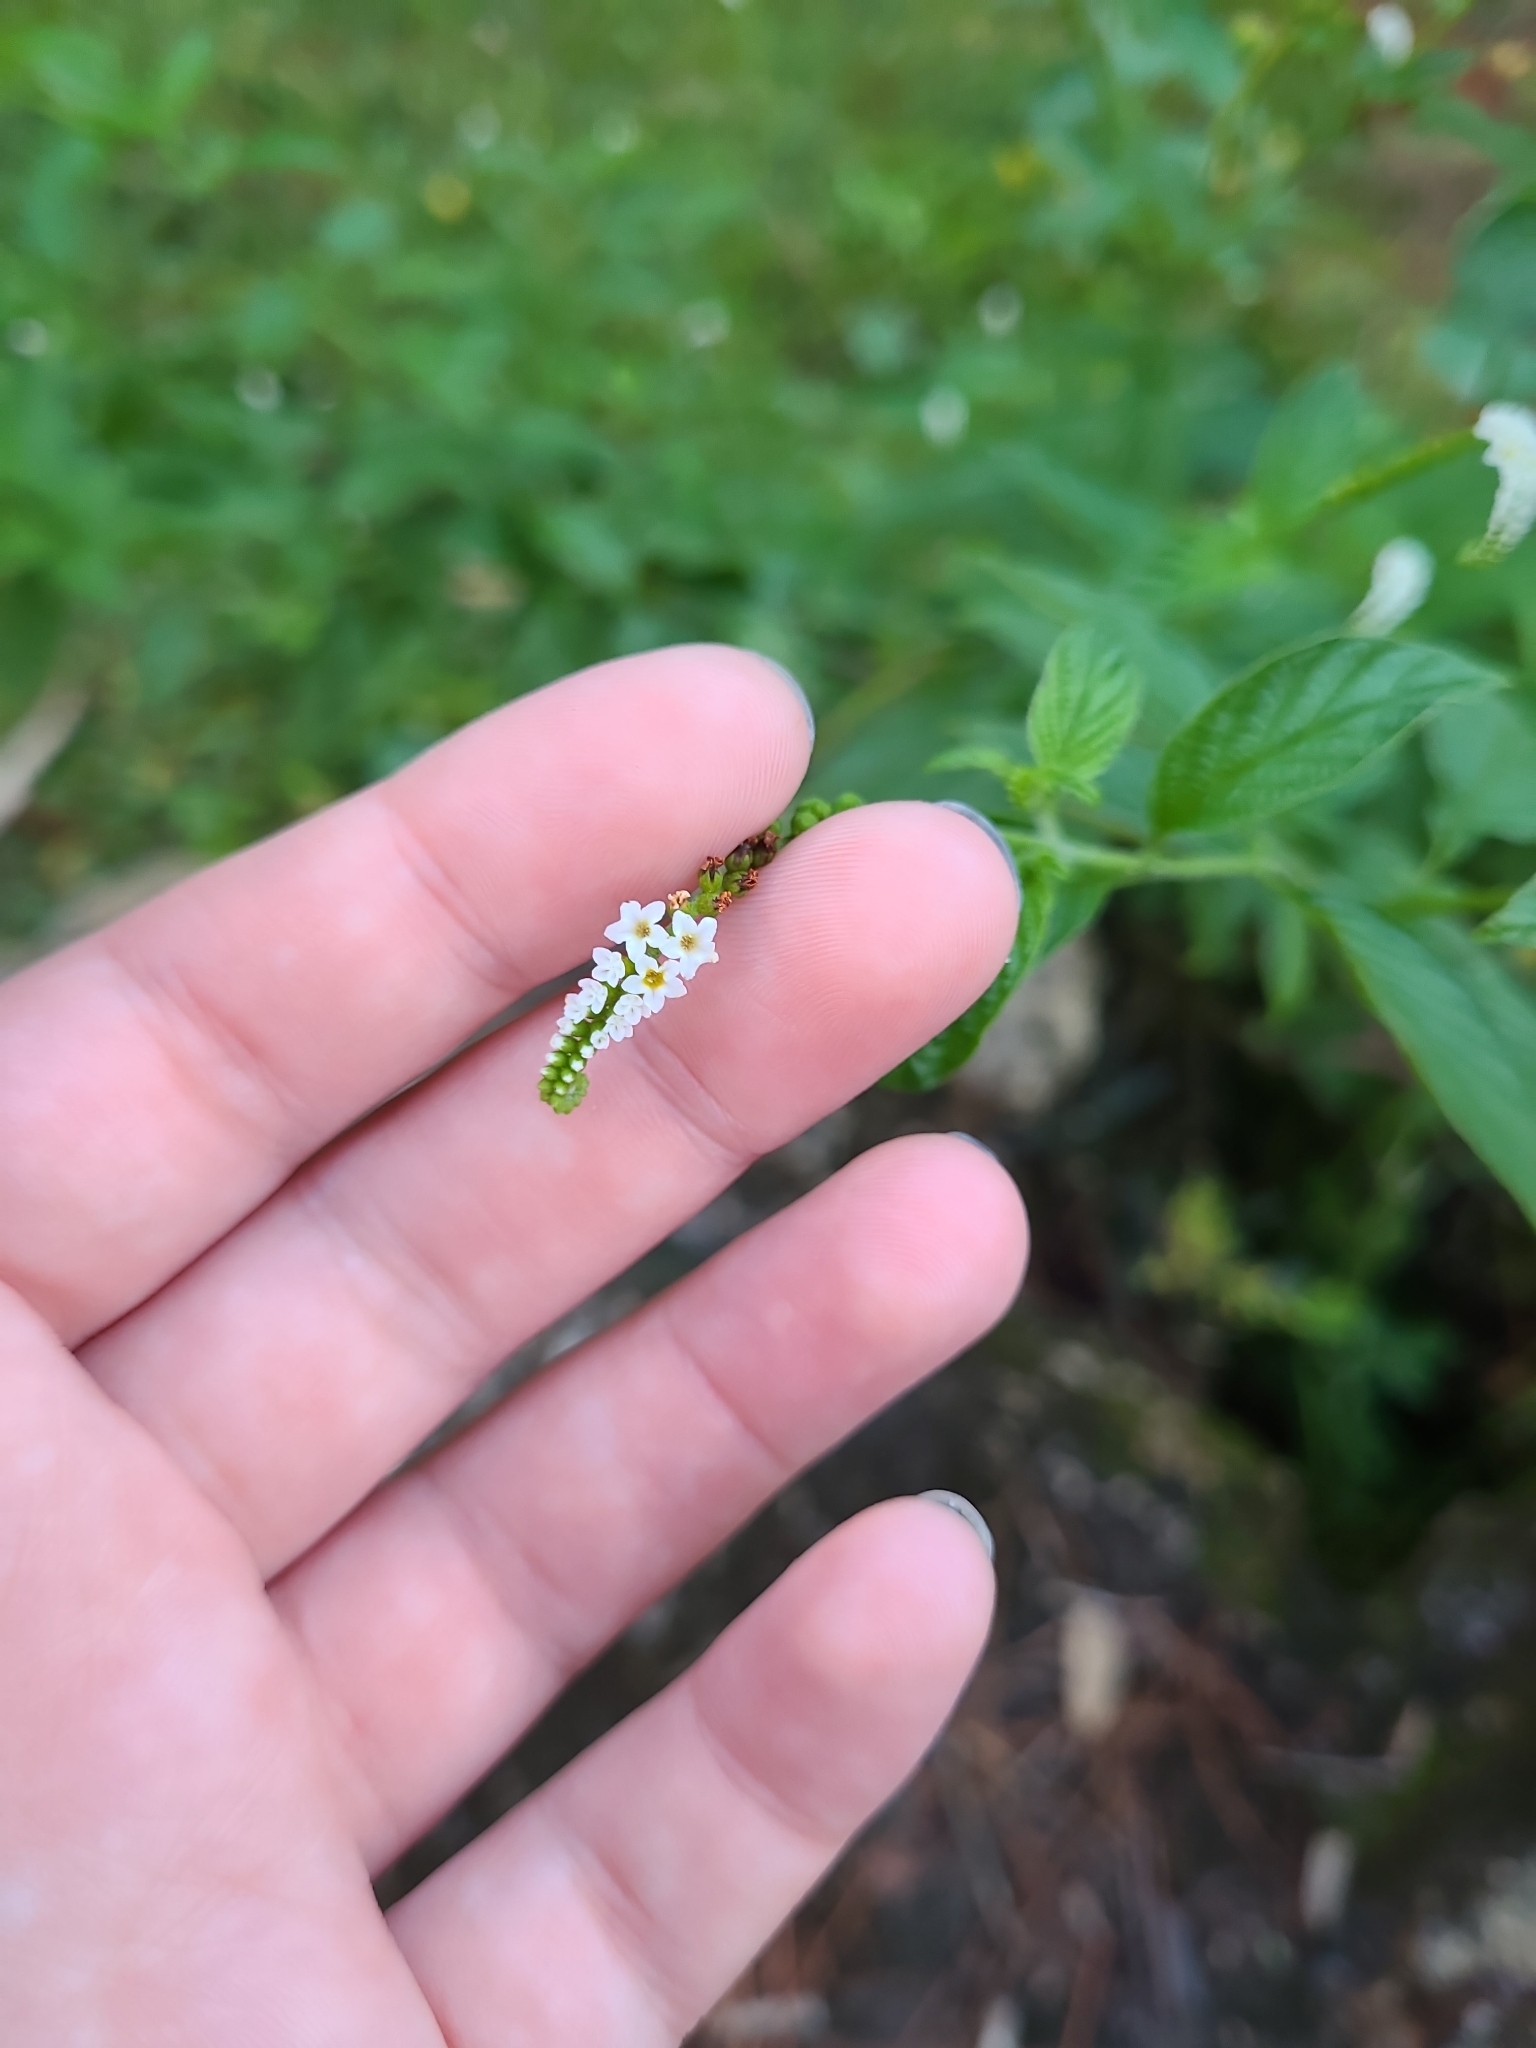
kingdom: Plantae
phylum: Tracheophyta
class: Magnoliopsida
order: Boraginales
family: Heliotropiaceae
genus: Heliotropium
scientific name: Heliotropium angiospermum
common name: Eye bright
